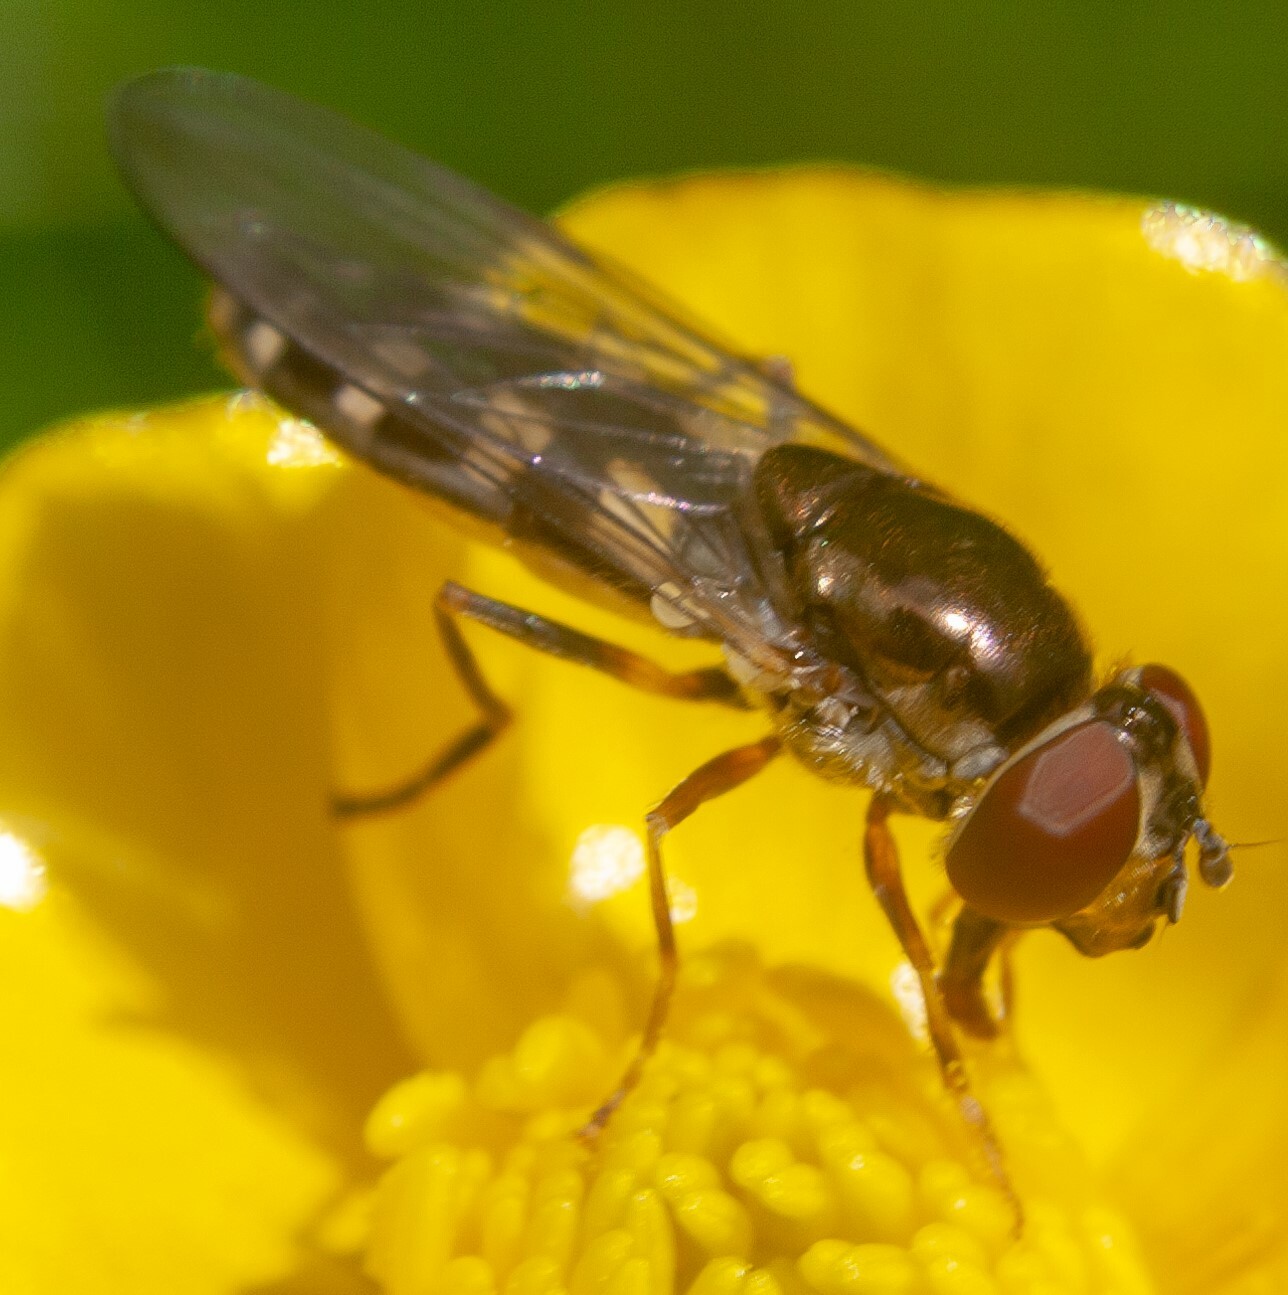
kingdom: Animalia
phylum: Arthropoda
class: Insecta
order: Diptera
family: Syrphidae
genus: Platycheirus
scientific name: Platycheirus peltatus
